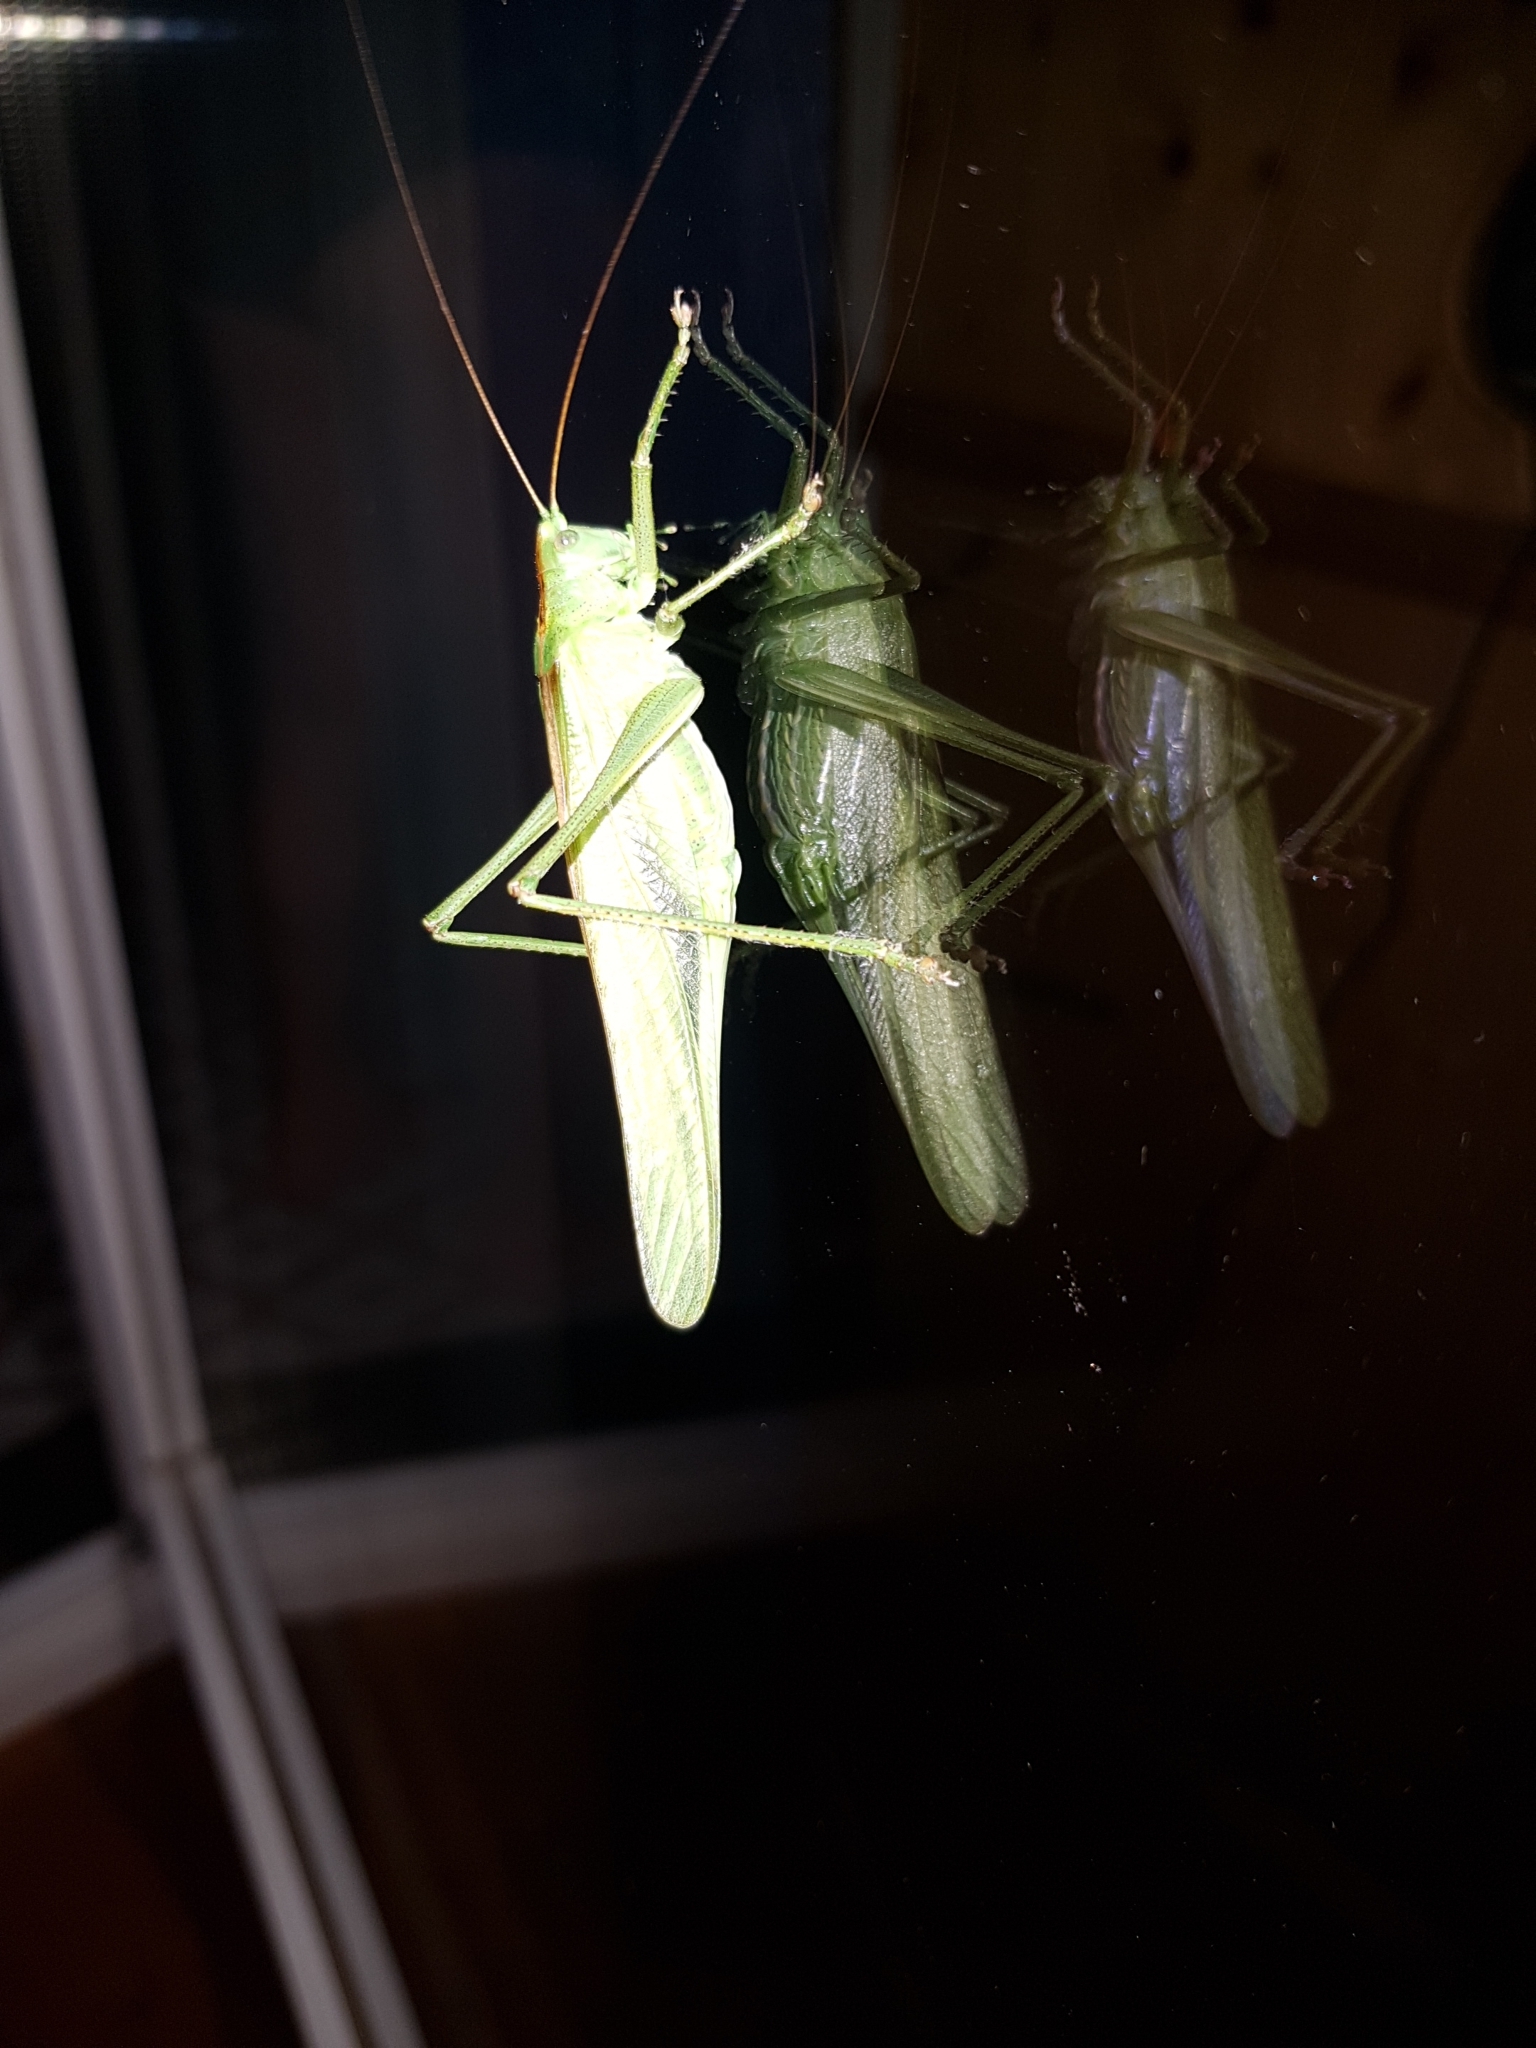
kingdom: Animalia
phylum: Arthropoda
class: Insecta
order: Orthoptera
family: Tettigoniidae
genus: Tettigonia
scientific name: Tettigonia viridissima
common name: Great green bush-cricket
